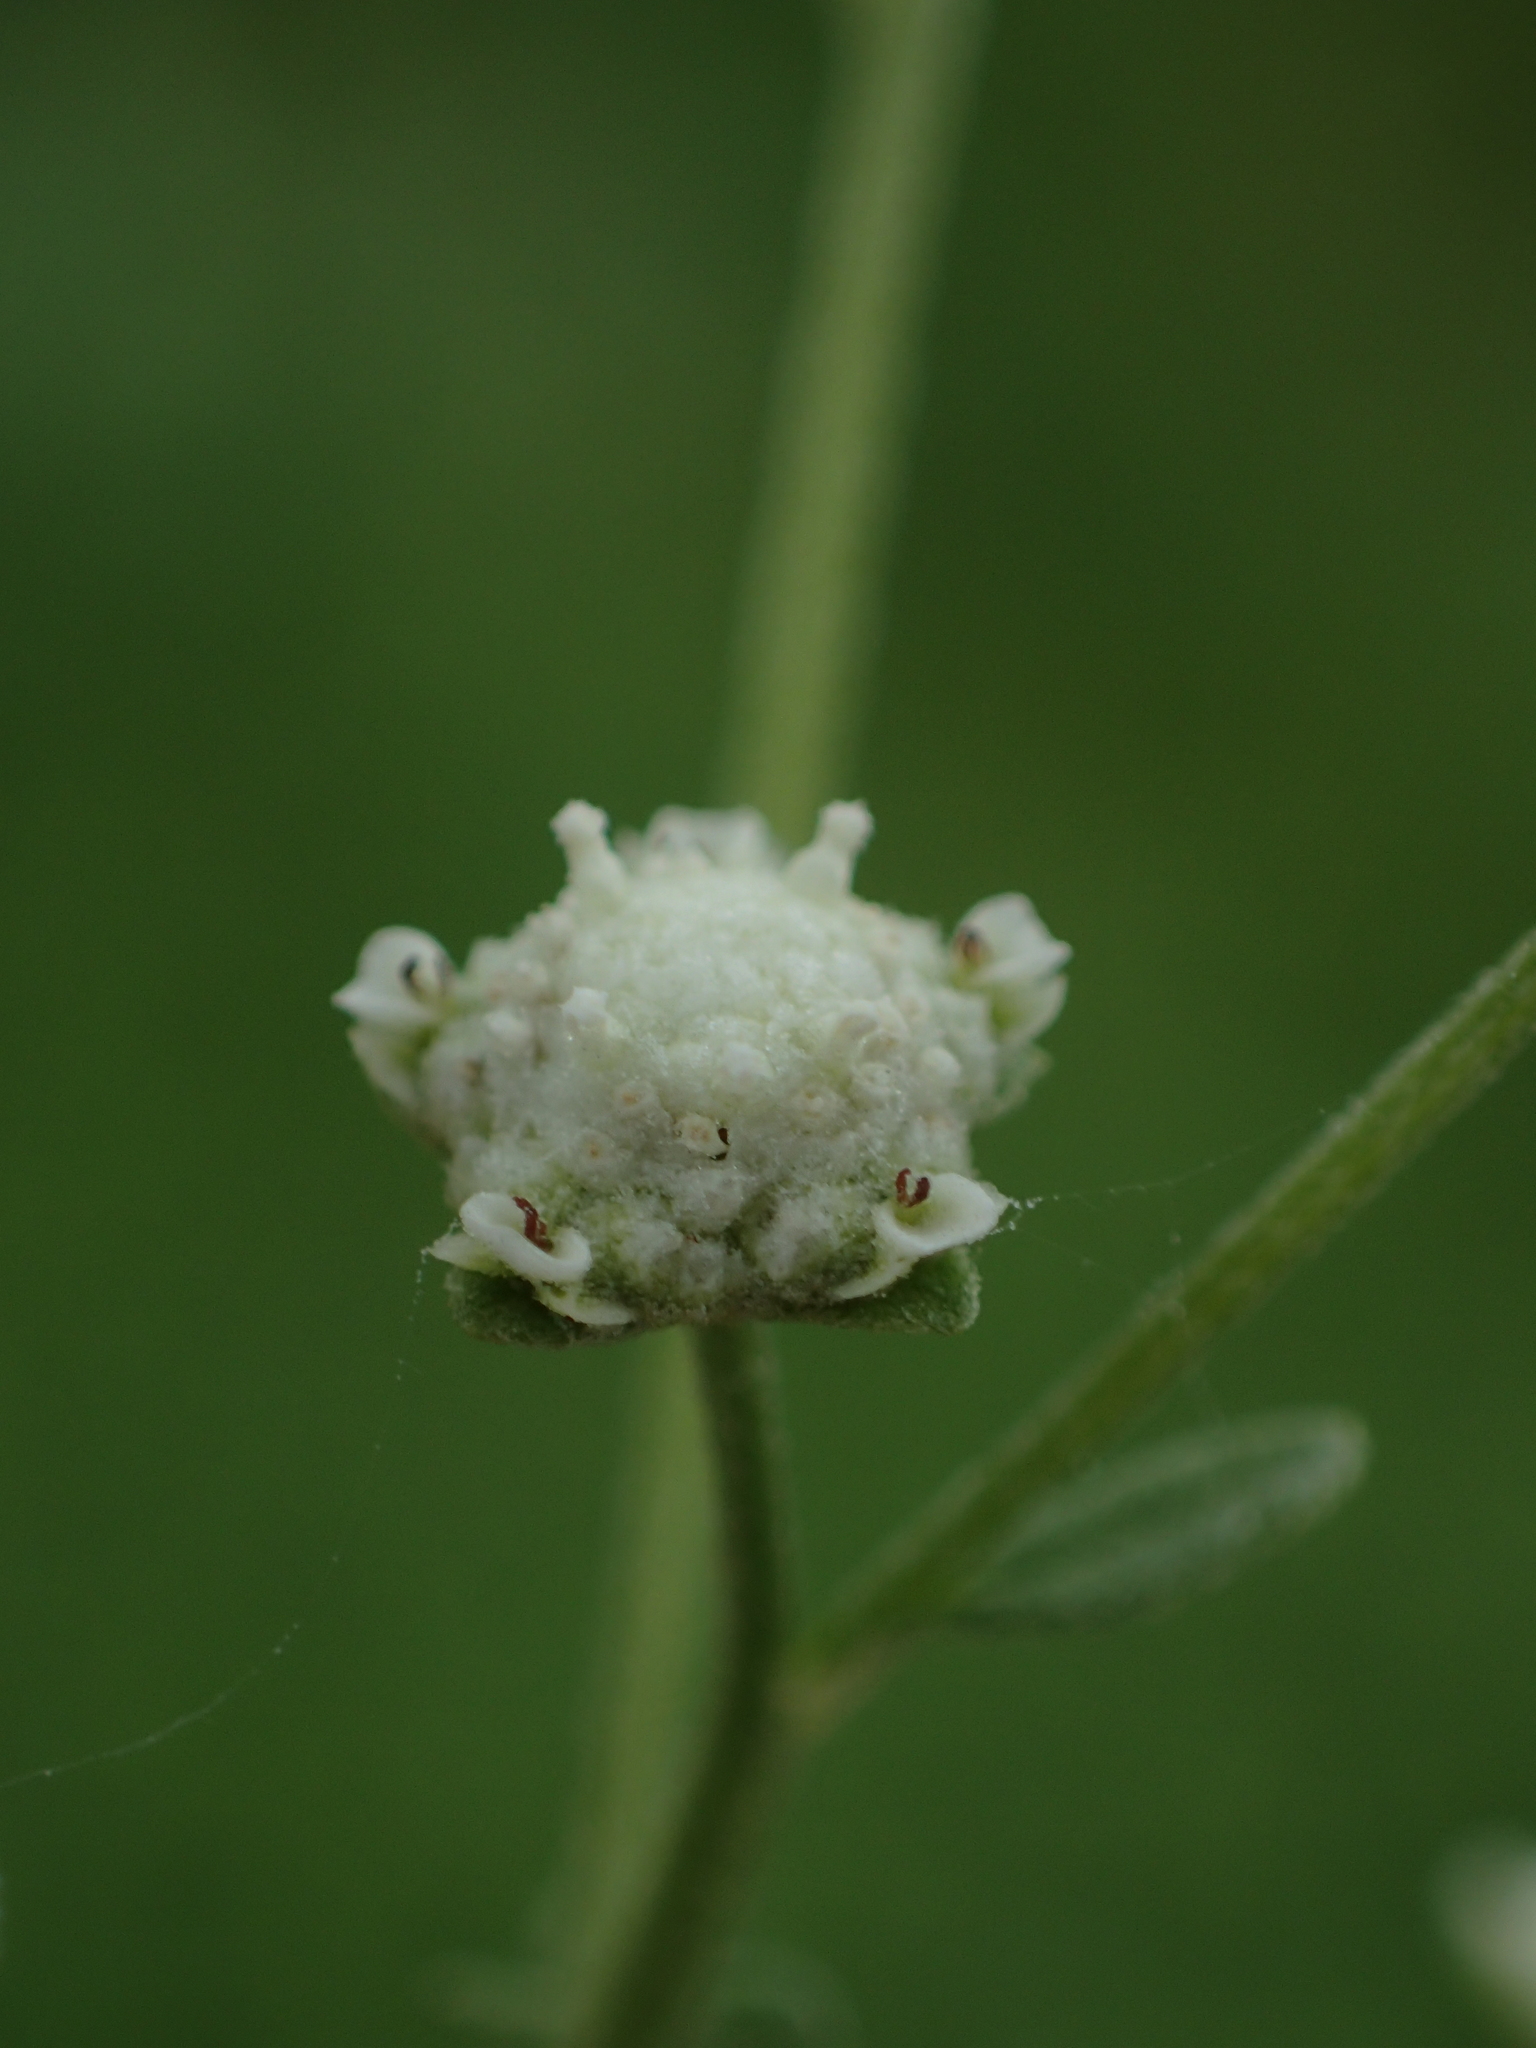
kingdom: Plantae
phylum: Tracheophyta
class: Magnoliopsida
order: Asterales
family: Asteraceae
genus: Parthenium
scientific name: Parthenium hysterophorus
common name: Santa maria feverfew
